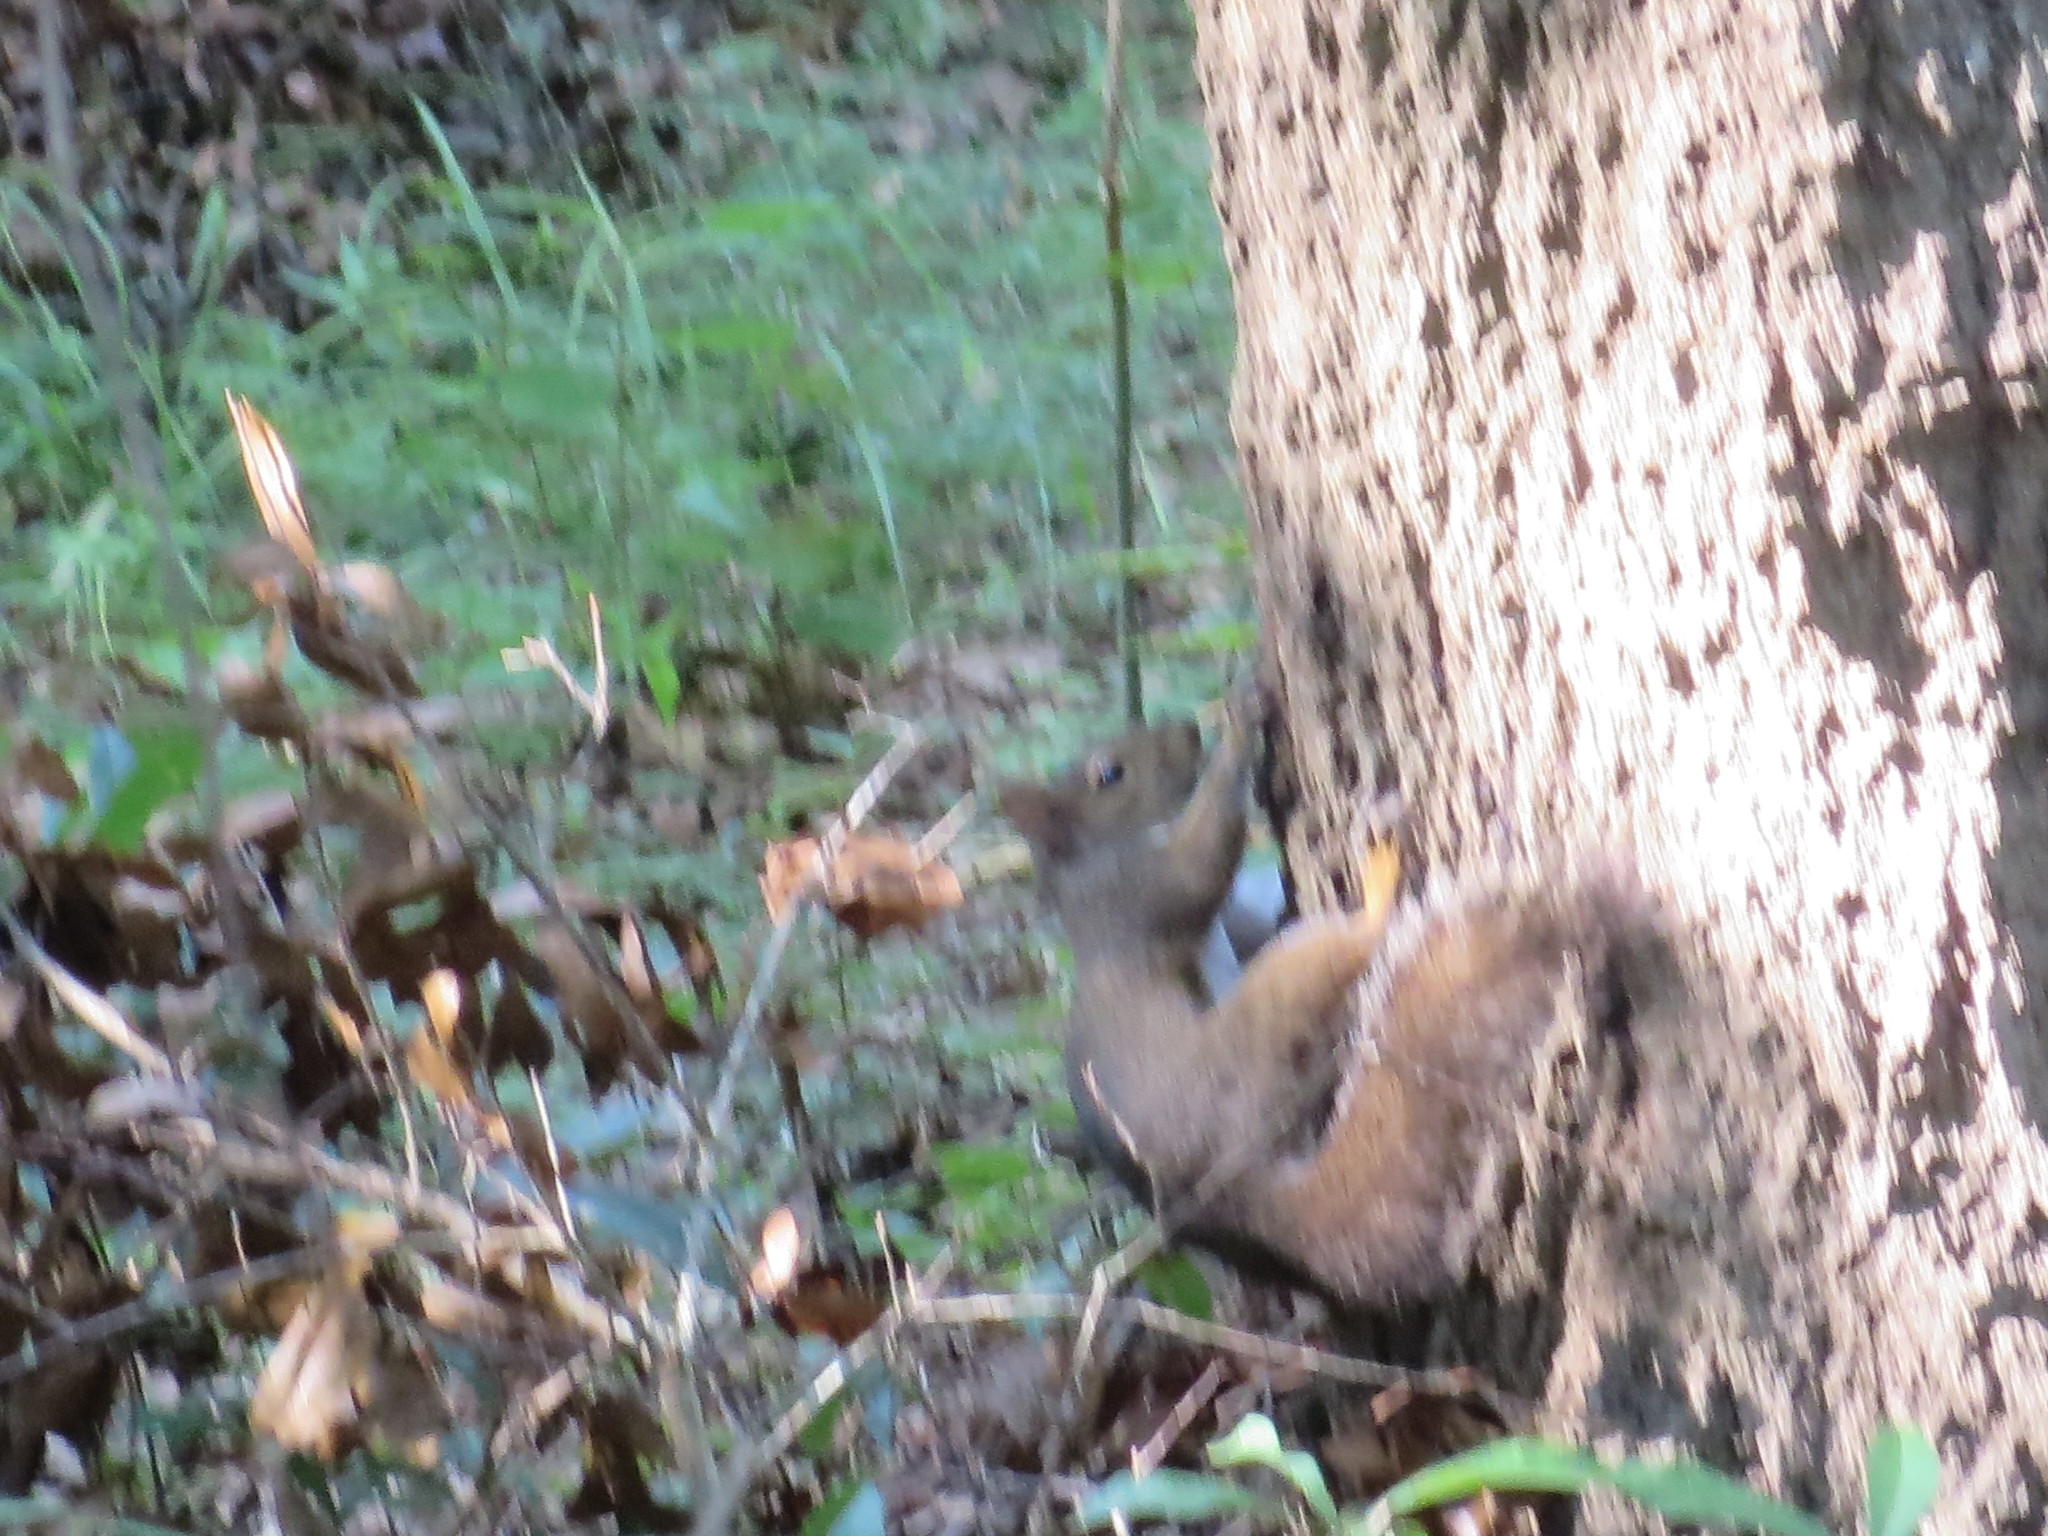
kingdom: Animalia
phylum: Chordata
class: Mammalia
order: Rodentia
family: Sciuridae
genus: Sciurus
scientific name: Sciurus carolinensis
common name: Eastern gray squirrel
